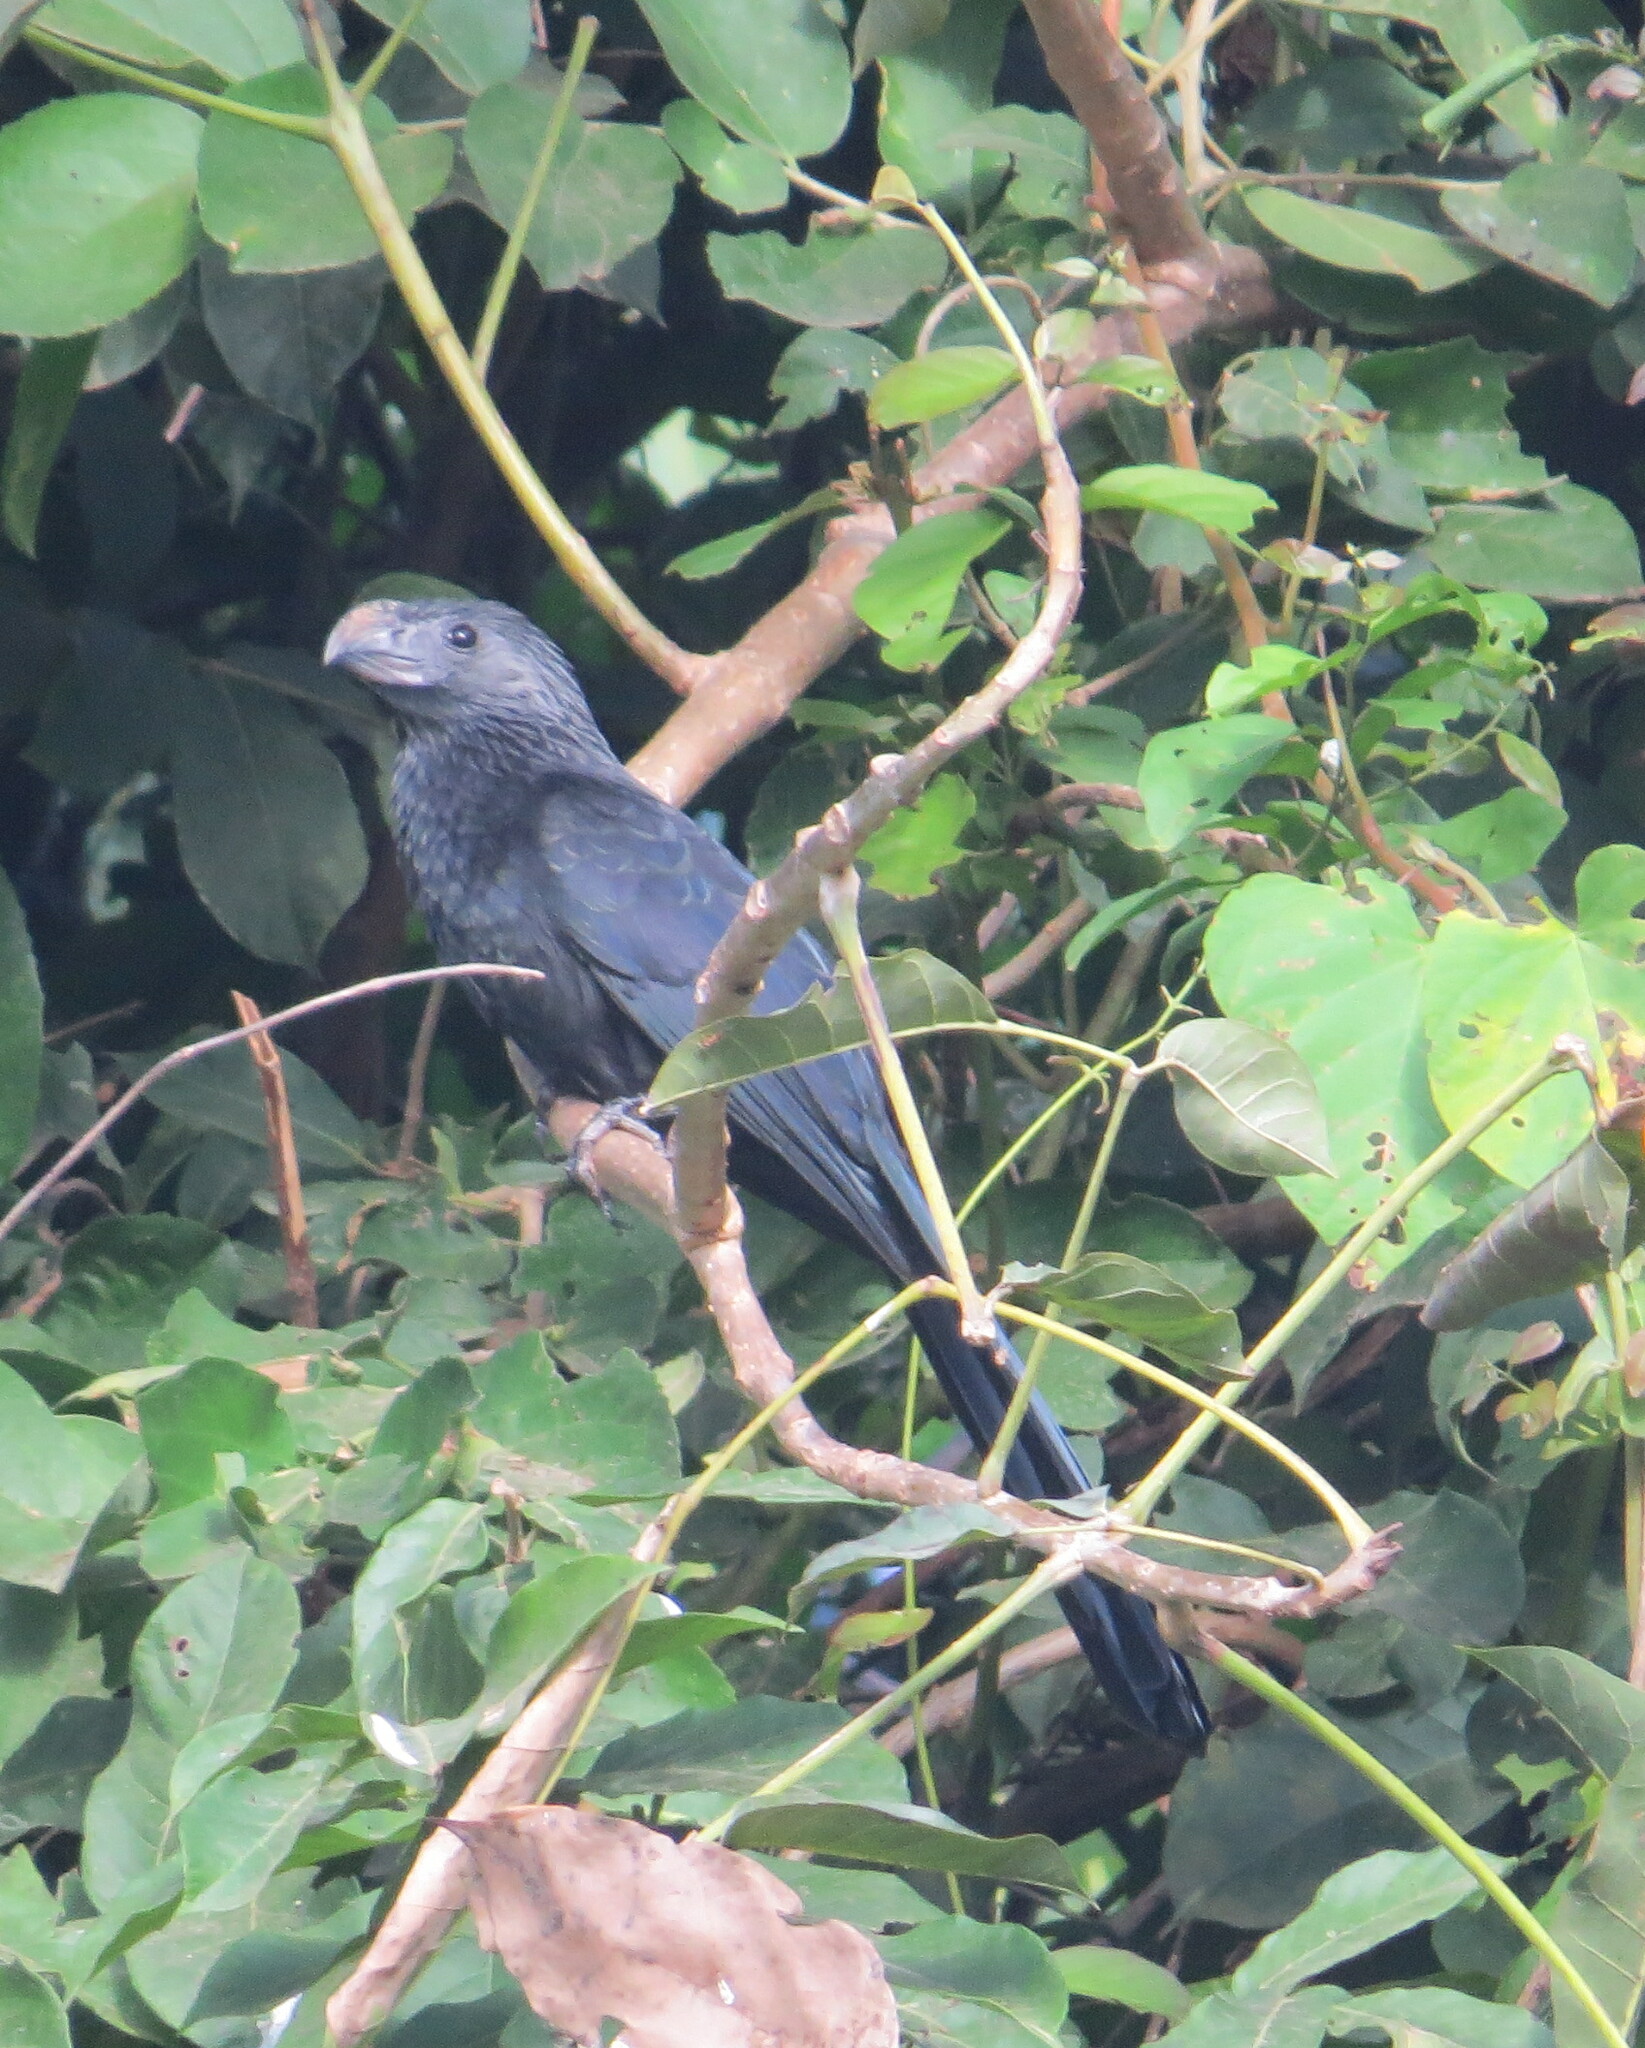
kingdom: Animalia
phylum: Chordata
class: Aves
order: Cuculiformes
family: Cuculidae
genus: Crotophaga
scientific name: Crotophaga sulcirostris
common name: Groove-billed ani
